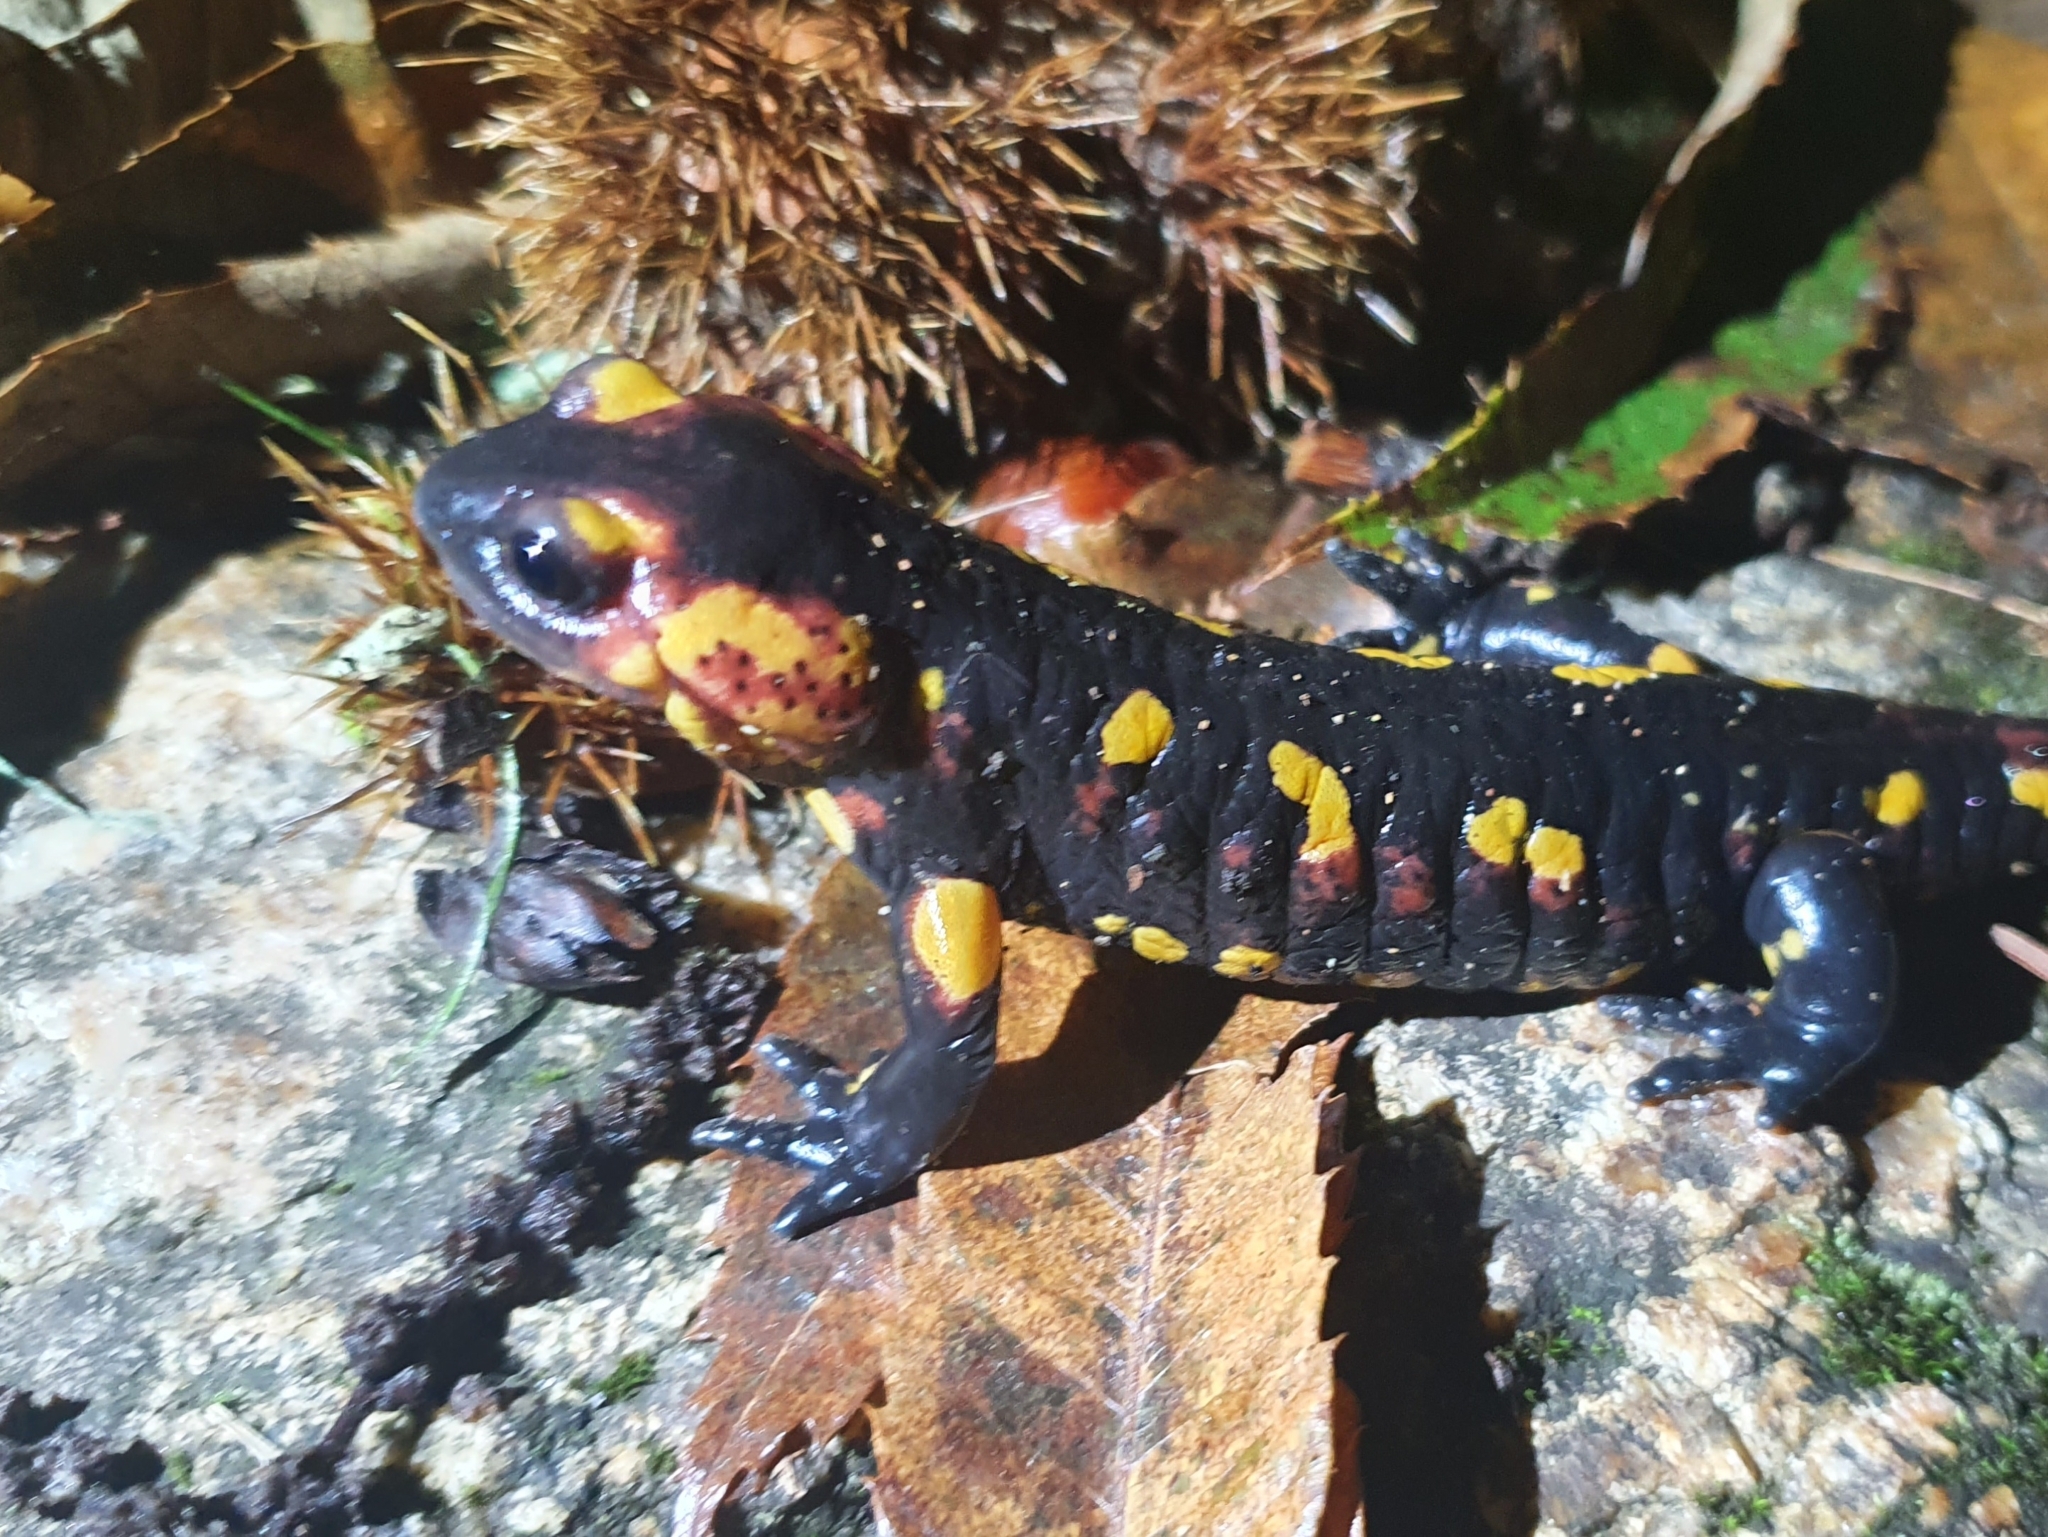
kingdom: Animalia
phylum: Chordata
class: Amphibia
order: Caudata
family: Salamandridae
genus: Salamandra
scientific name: Salamandra salamandra
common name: Fire salamander
